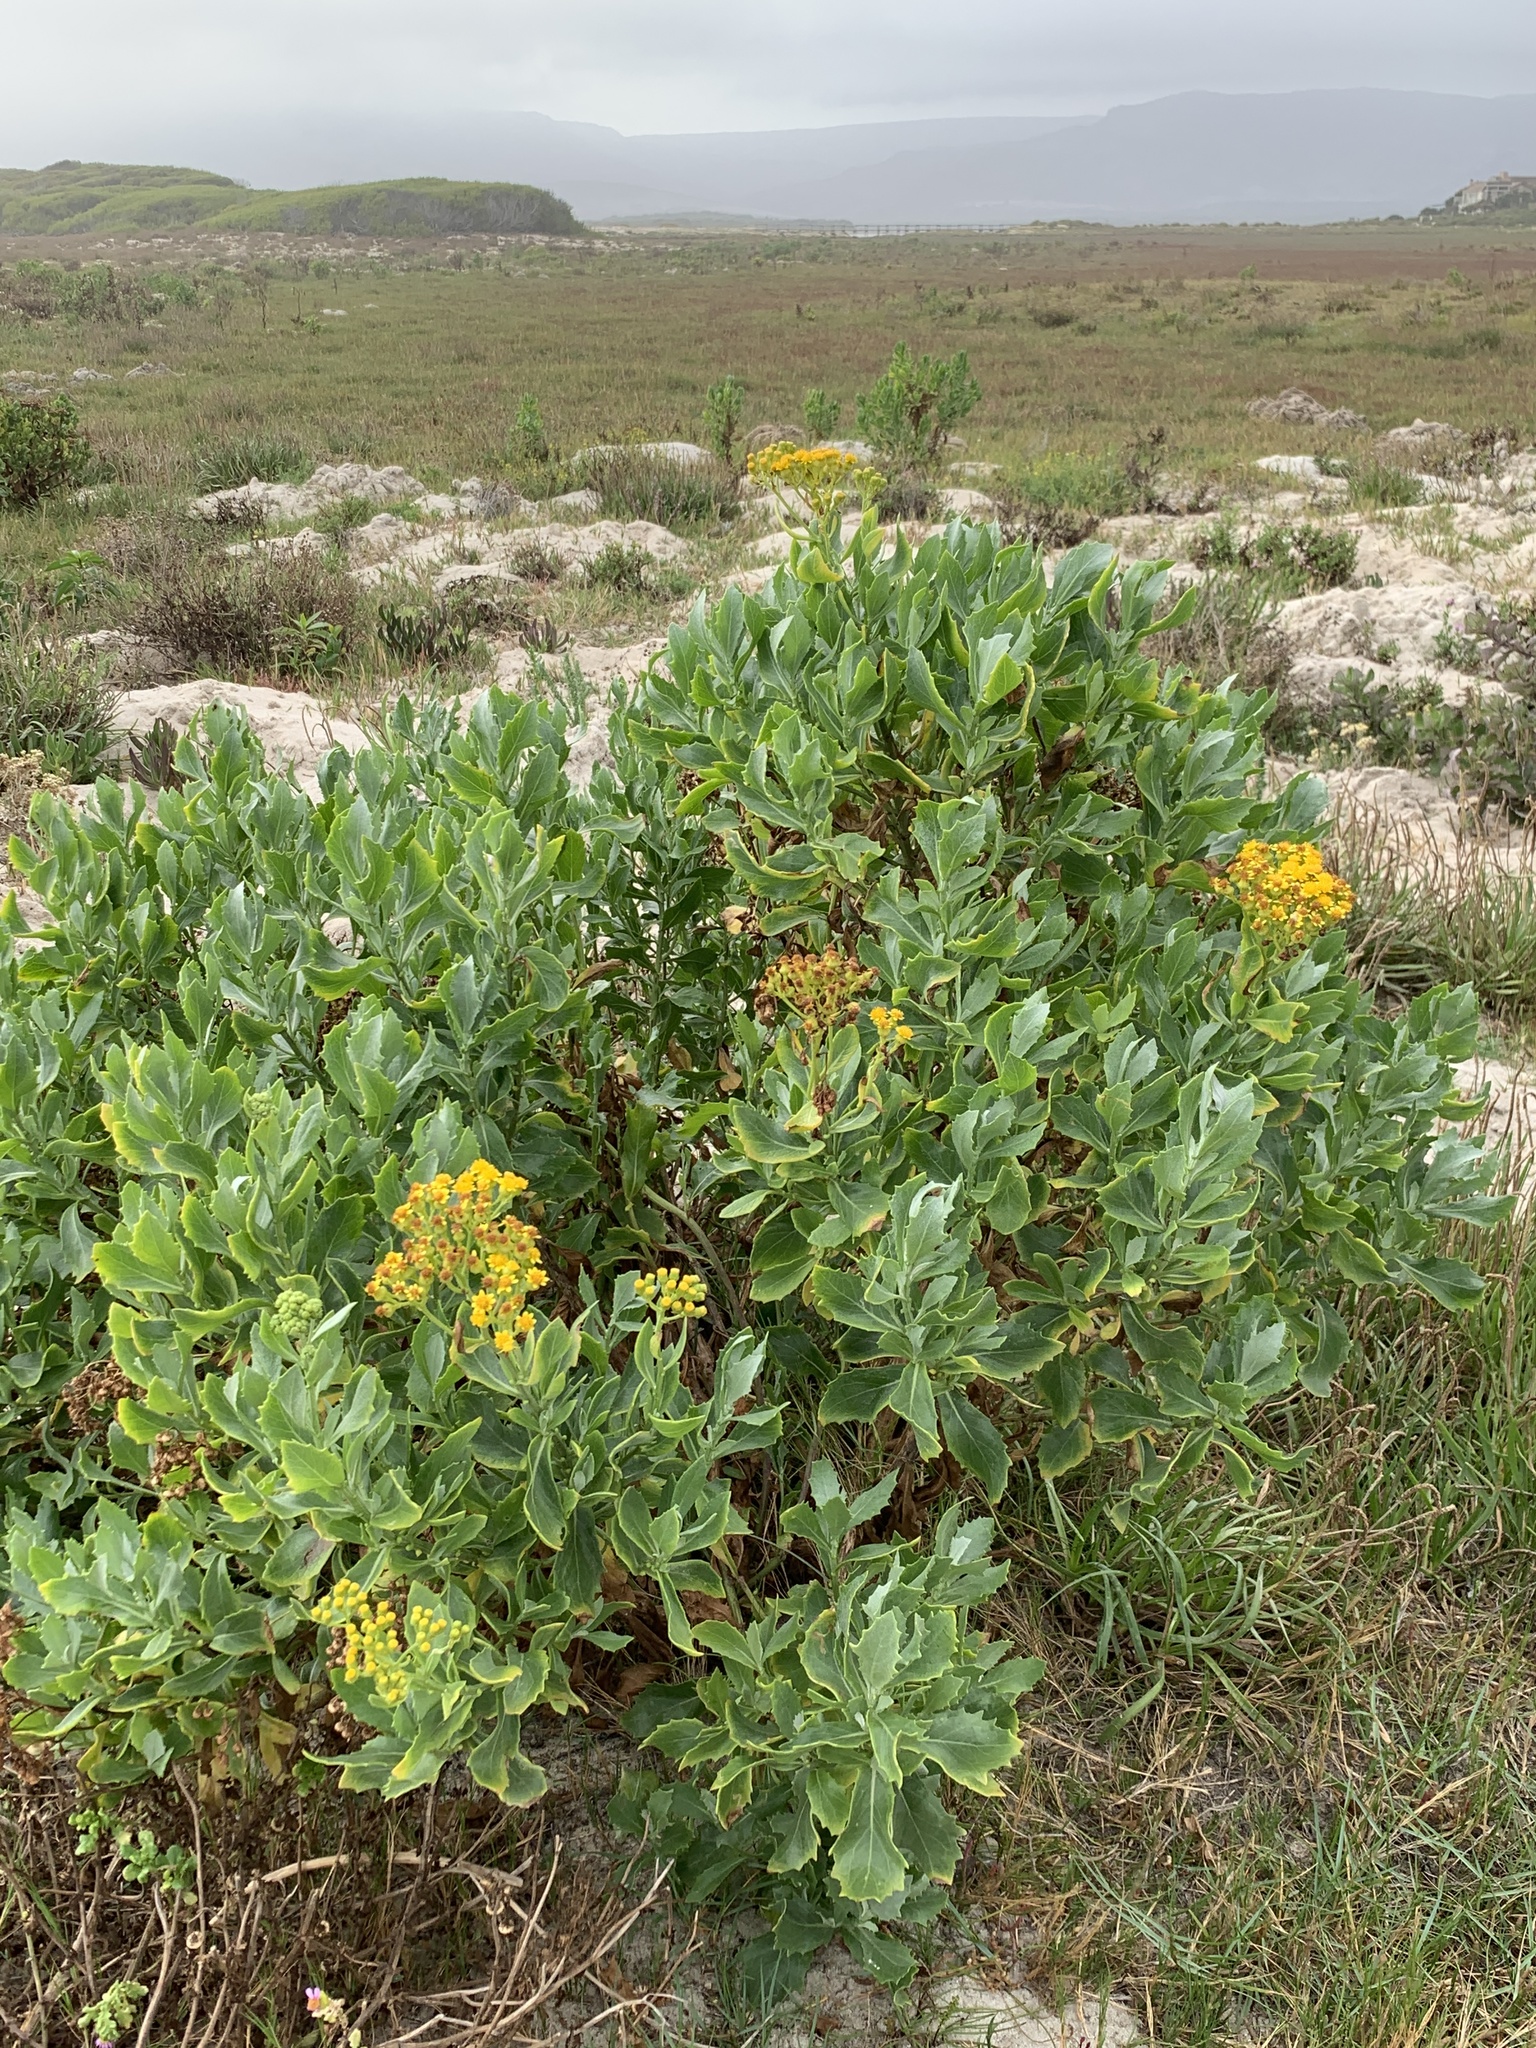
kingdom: Plantae
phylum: Tracheophyta
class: Magnoliopsida
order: Asterales
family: Asteraceae
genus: Senecio
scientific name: Senecio halimifolius
